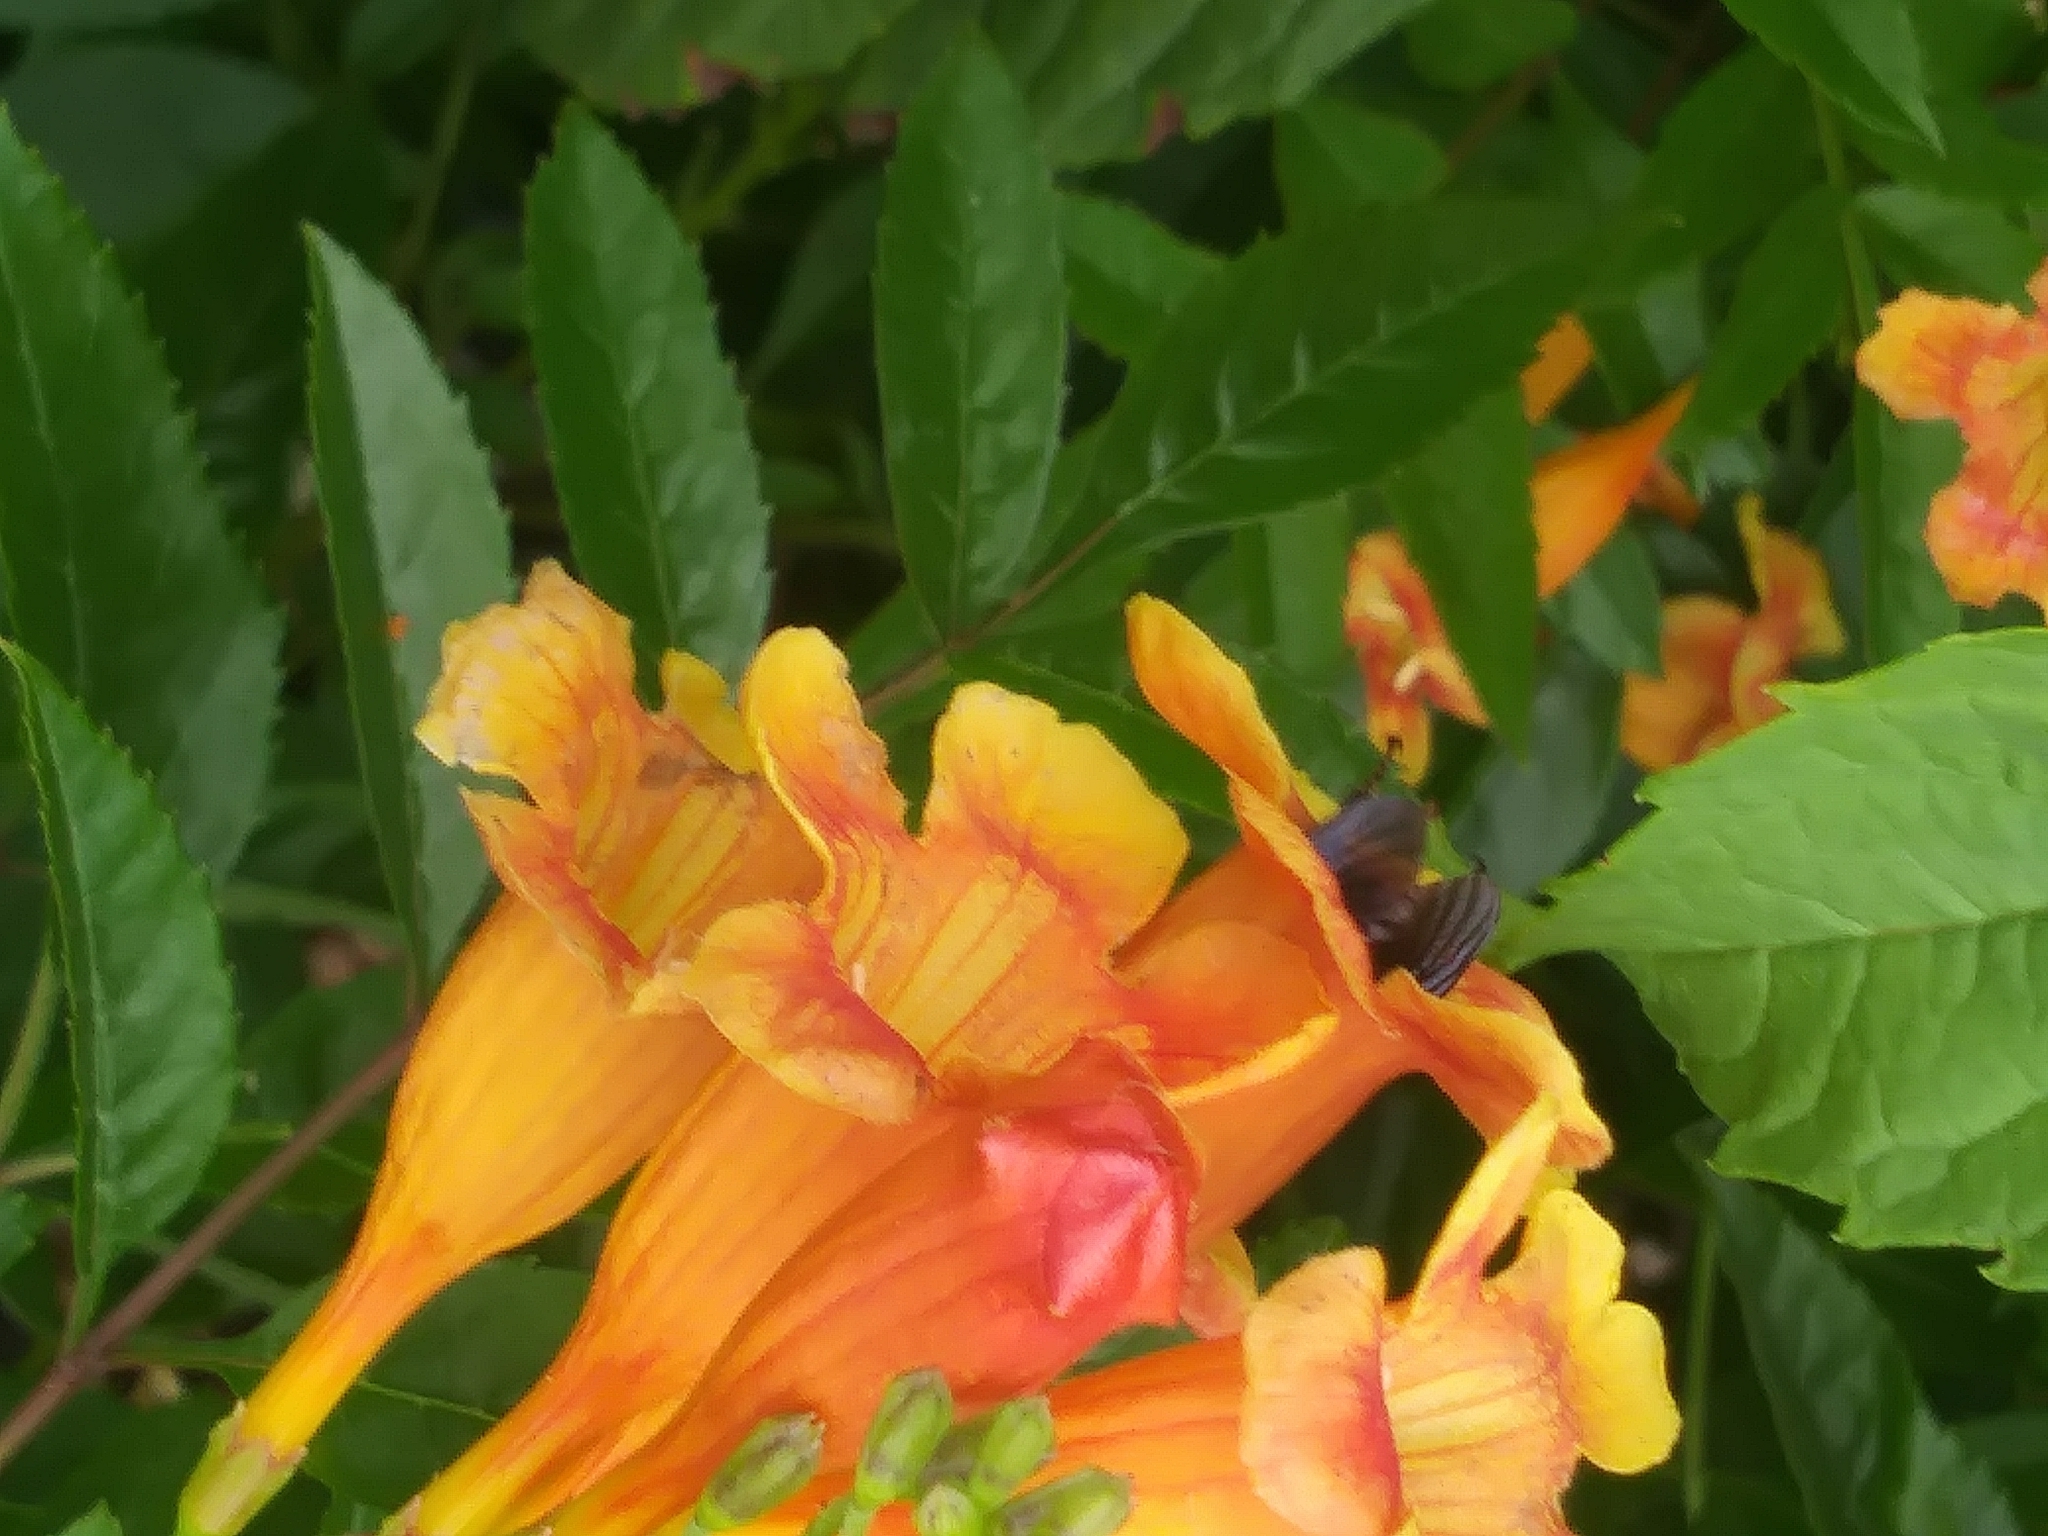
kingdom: Animalia
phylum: Arthropoda
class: Insecta
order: Hymenoptera
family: Apidae
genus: Bombus
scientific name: Bombus sonorus
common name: Sonoran bumble bee
